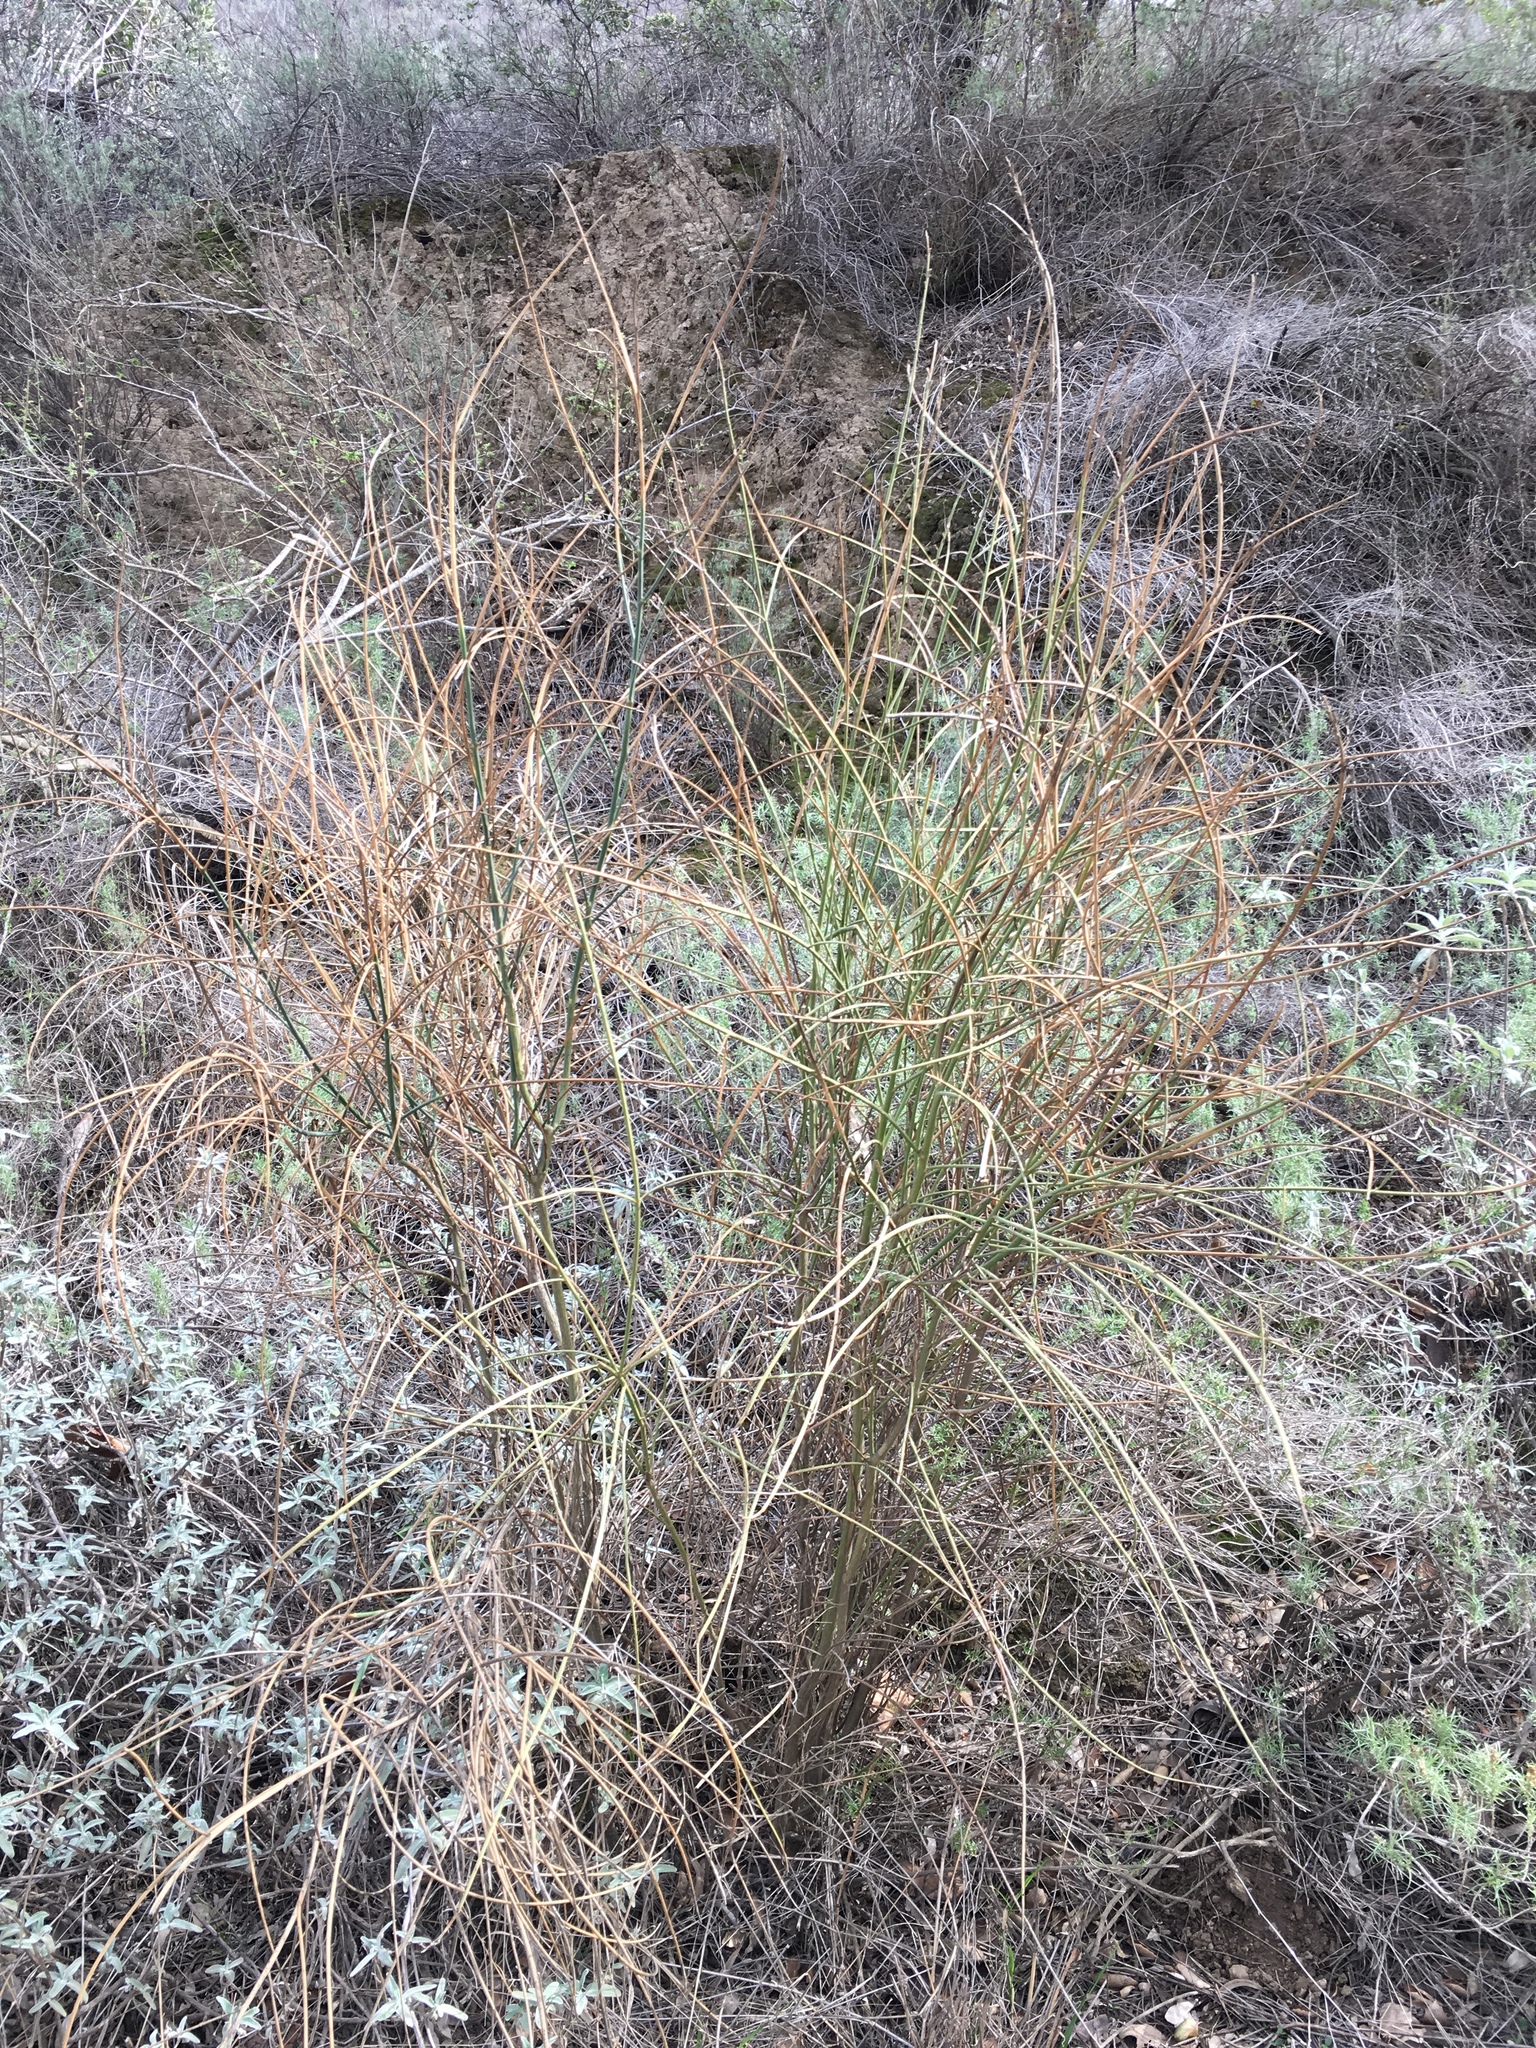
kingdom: Plantae
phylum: Tracheophyta
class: Magnoliopsida
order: Fabales
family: Fabaceae
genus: Spartium
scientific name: Spartium junceum
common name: Spanish broom
